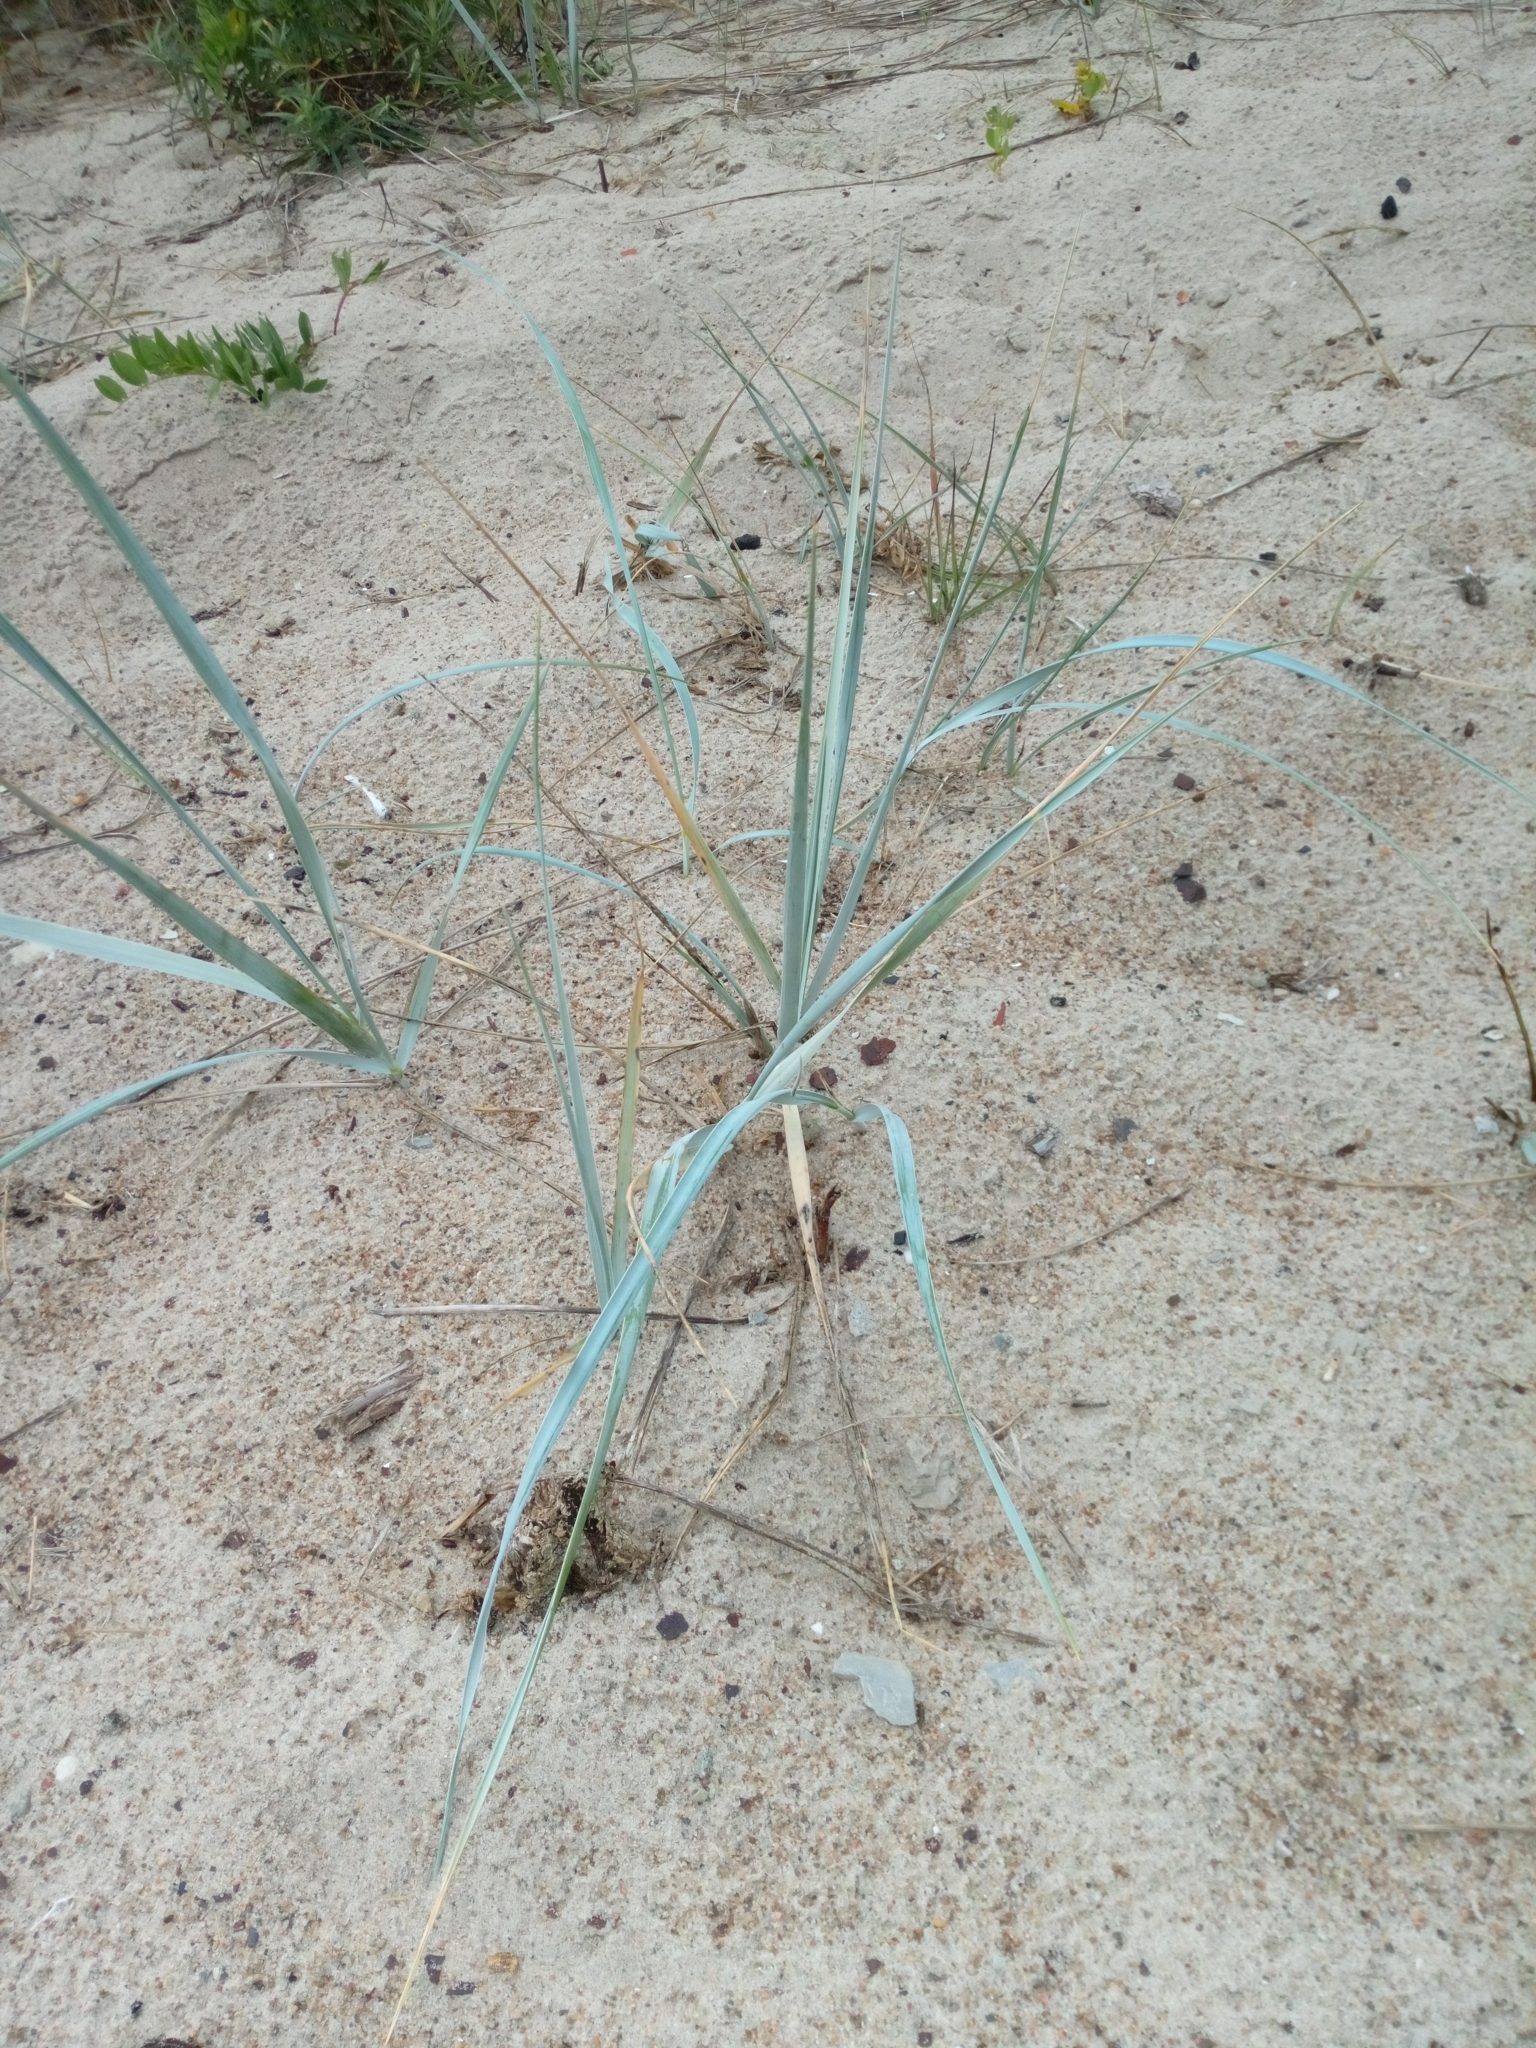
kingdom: Plantae
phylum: Tracheophyta
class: Liliopsida
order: Poales
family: Poaceae
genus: Leymus
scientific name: Leymus arenarius
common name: Lyme-grass
